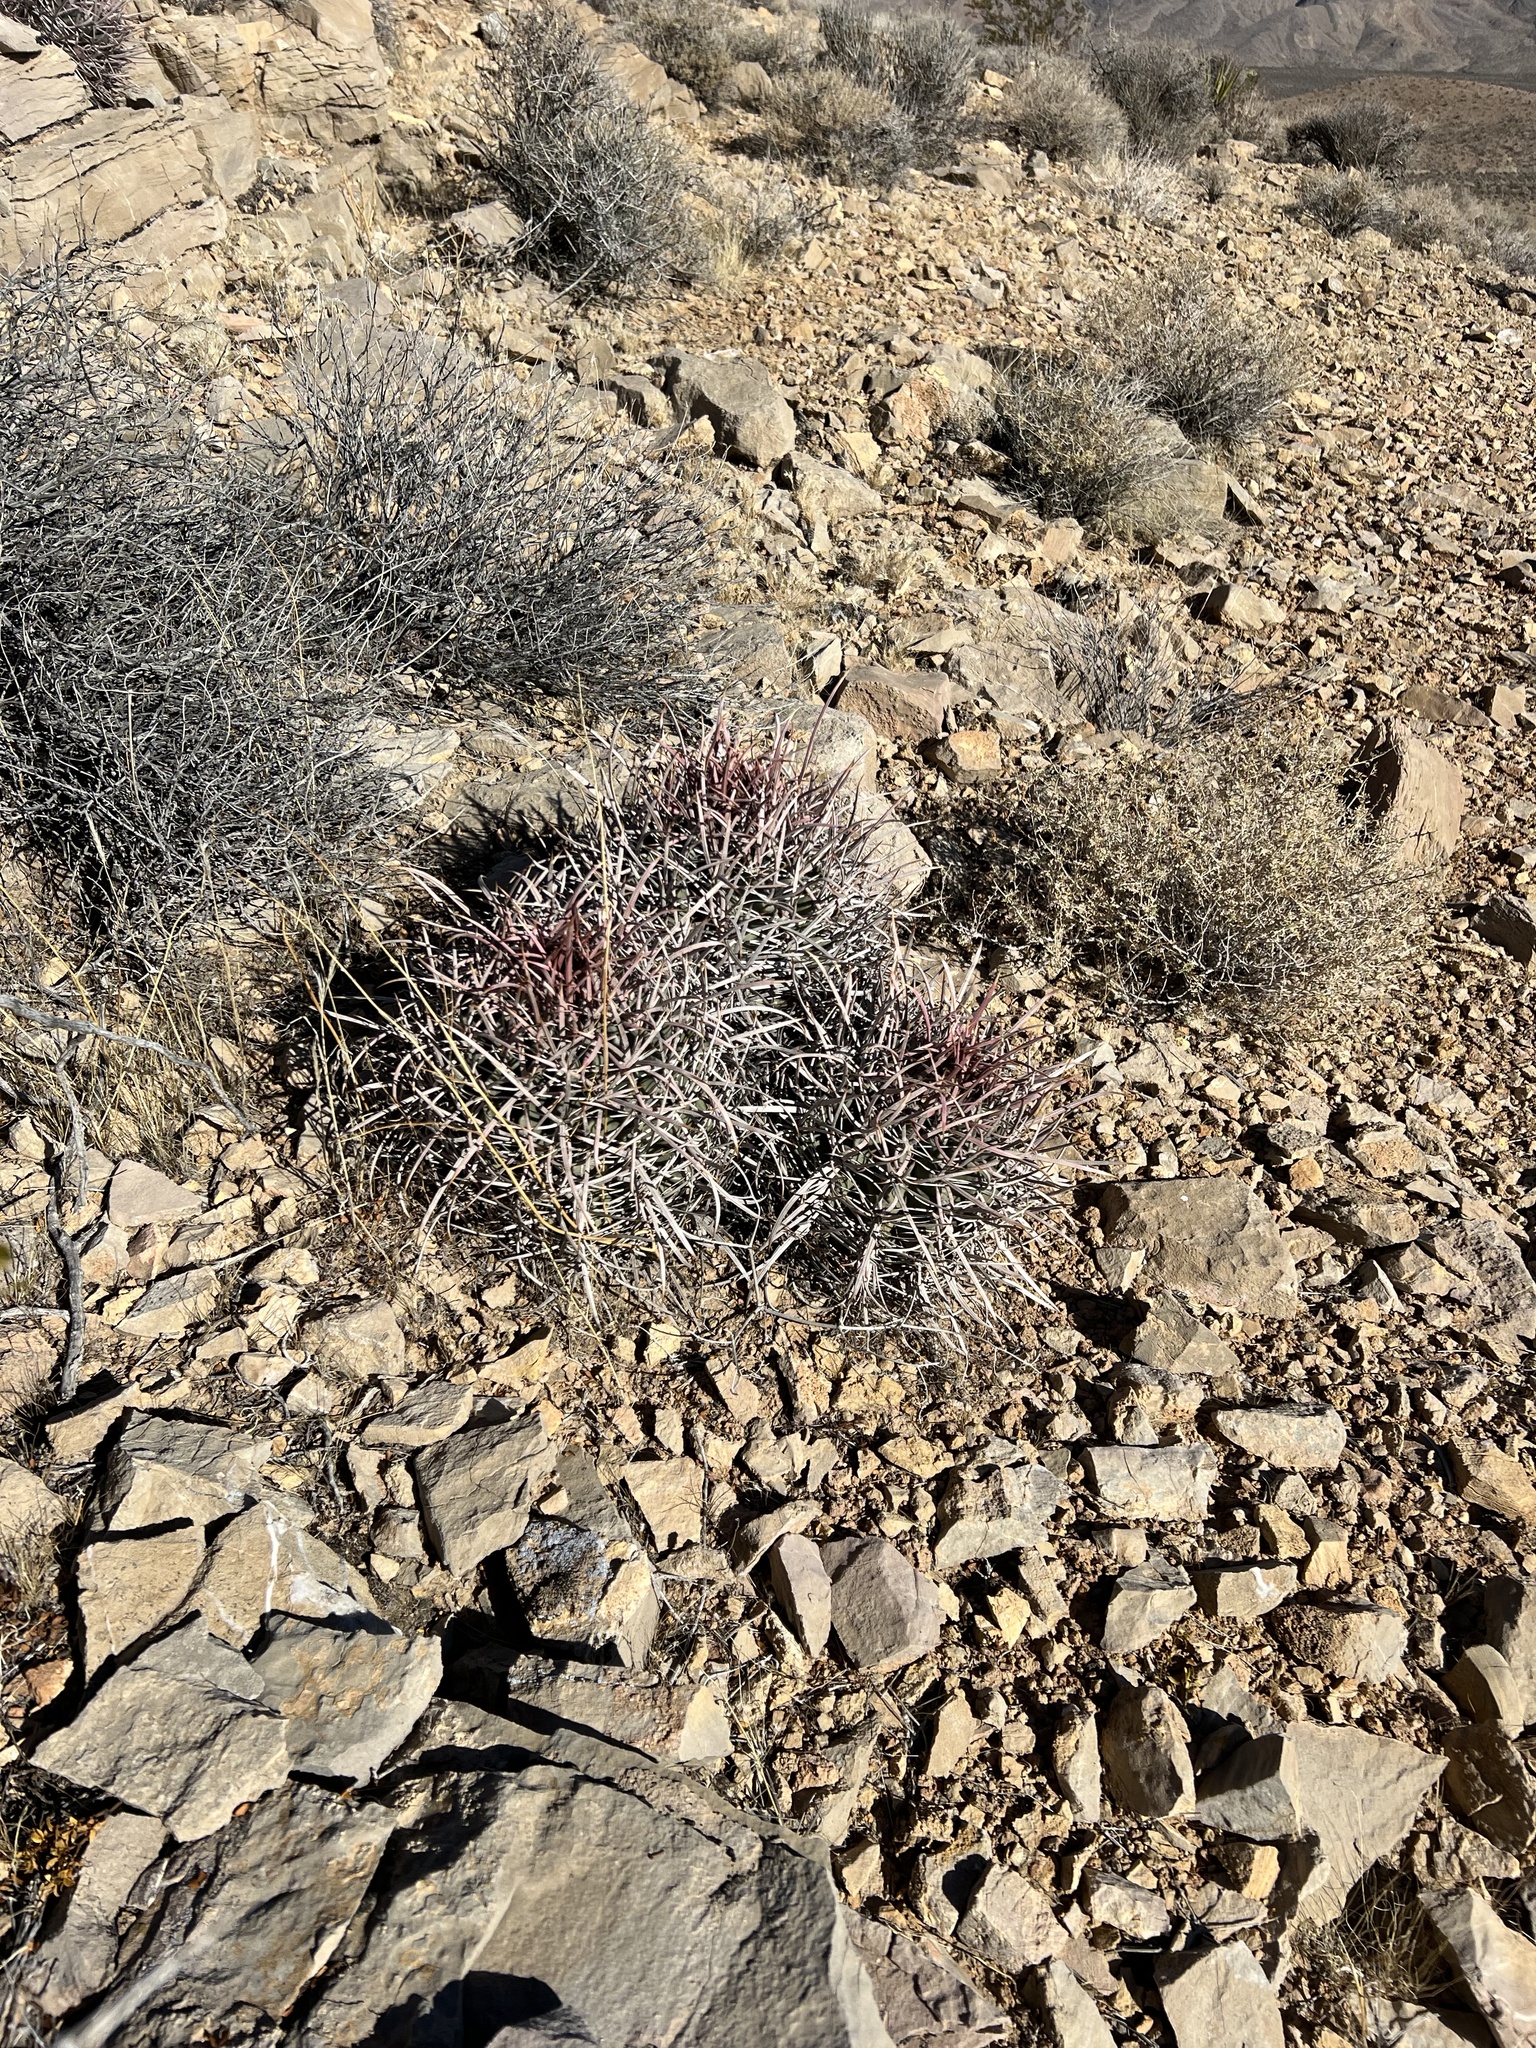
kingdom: Plantae
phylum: Tracheophyta
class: Magnoliopsida
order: Caryophyllales
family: Cactaceae
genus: Echinocactus
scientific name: Echinocactus polycephalus
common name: Cottontop cactus
